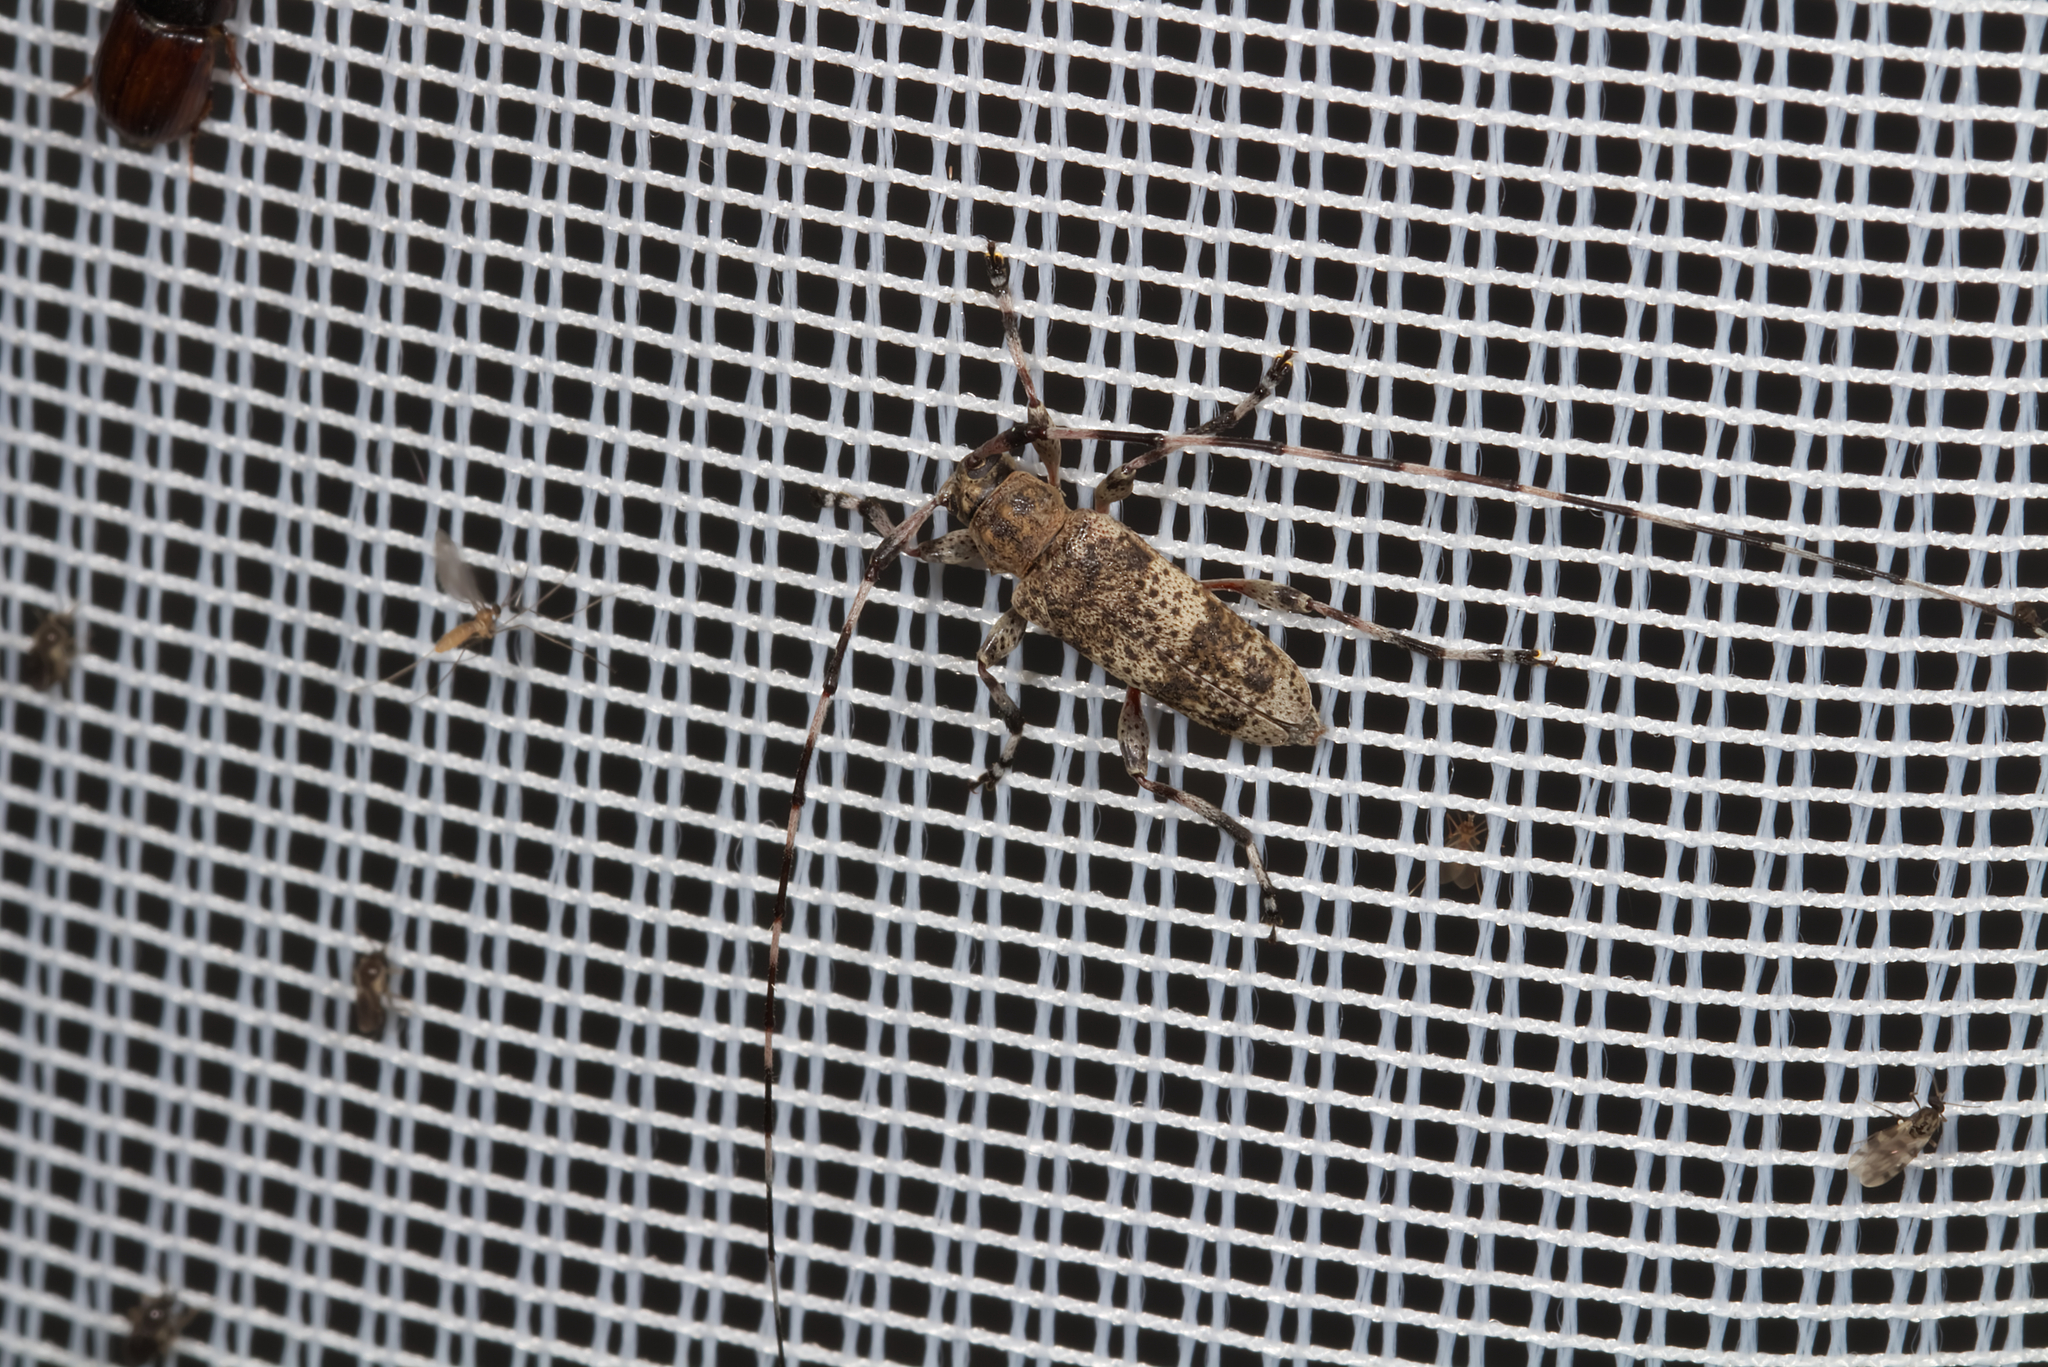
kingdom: Animalia
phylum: Arthropoda
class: Insecta
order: Coleoptera
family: Cerambycidae
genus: Acanthocinus
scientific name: Acanthocinus griseus
